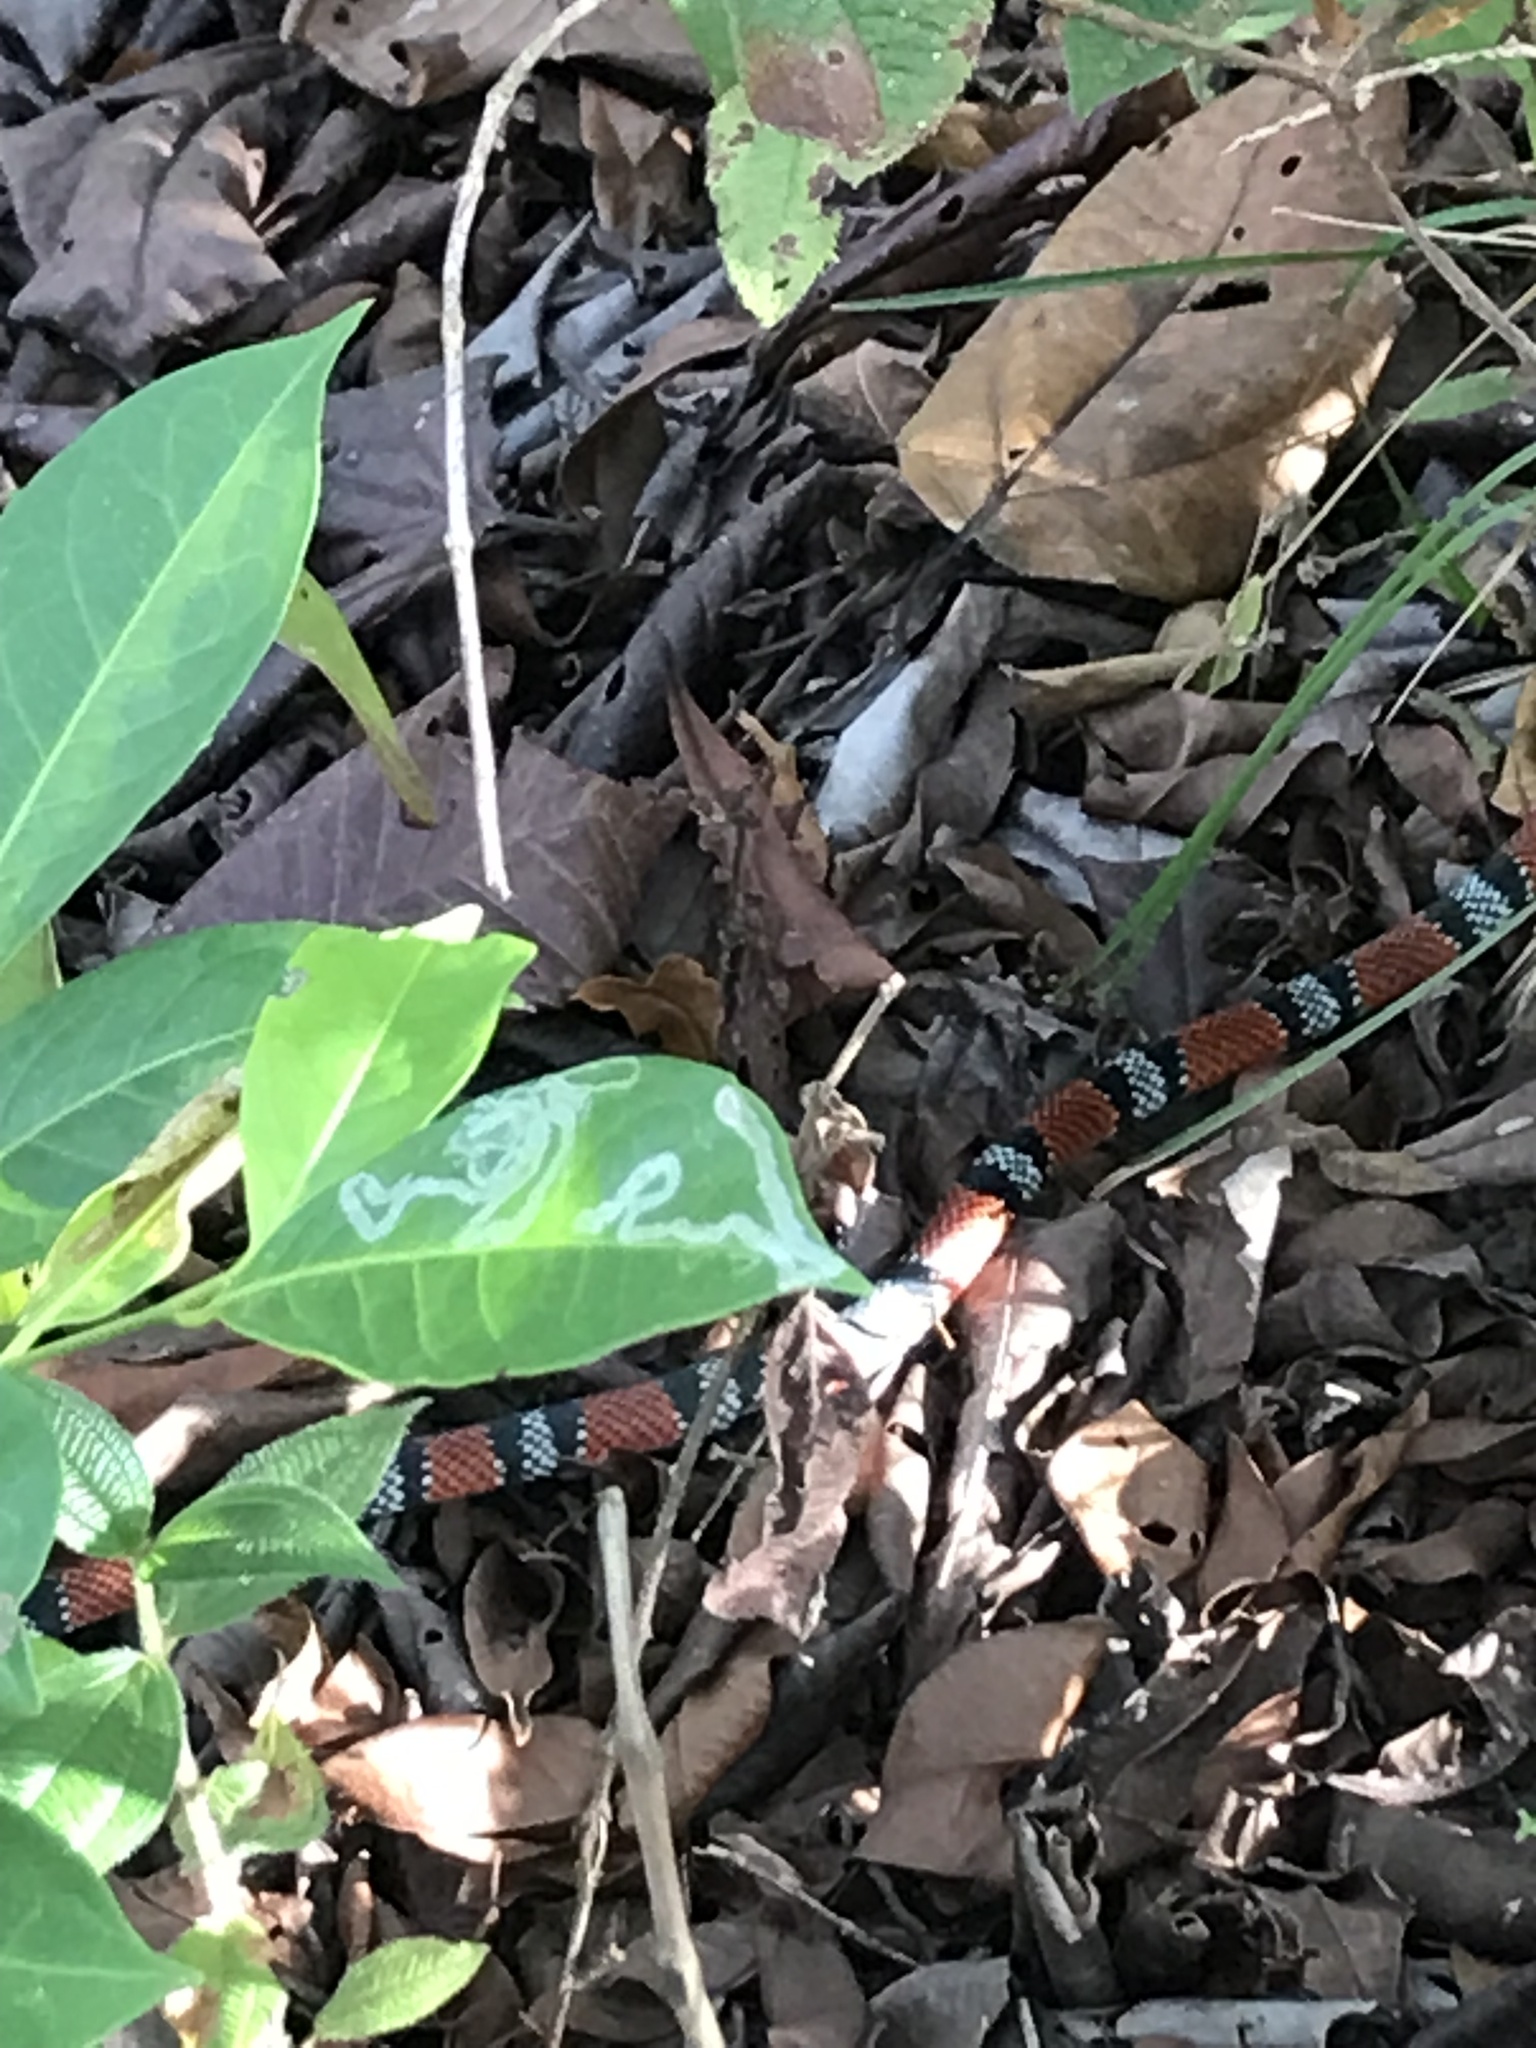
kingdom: Animalia
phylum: Chordata
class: Squamata
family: Colubridae
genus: Erythrolamprus
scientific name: Erythrolamprus bizona
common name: Double-banded coral snake mimic
